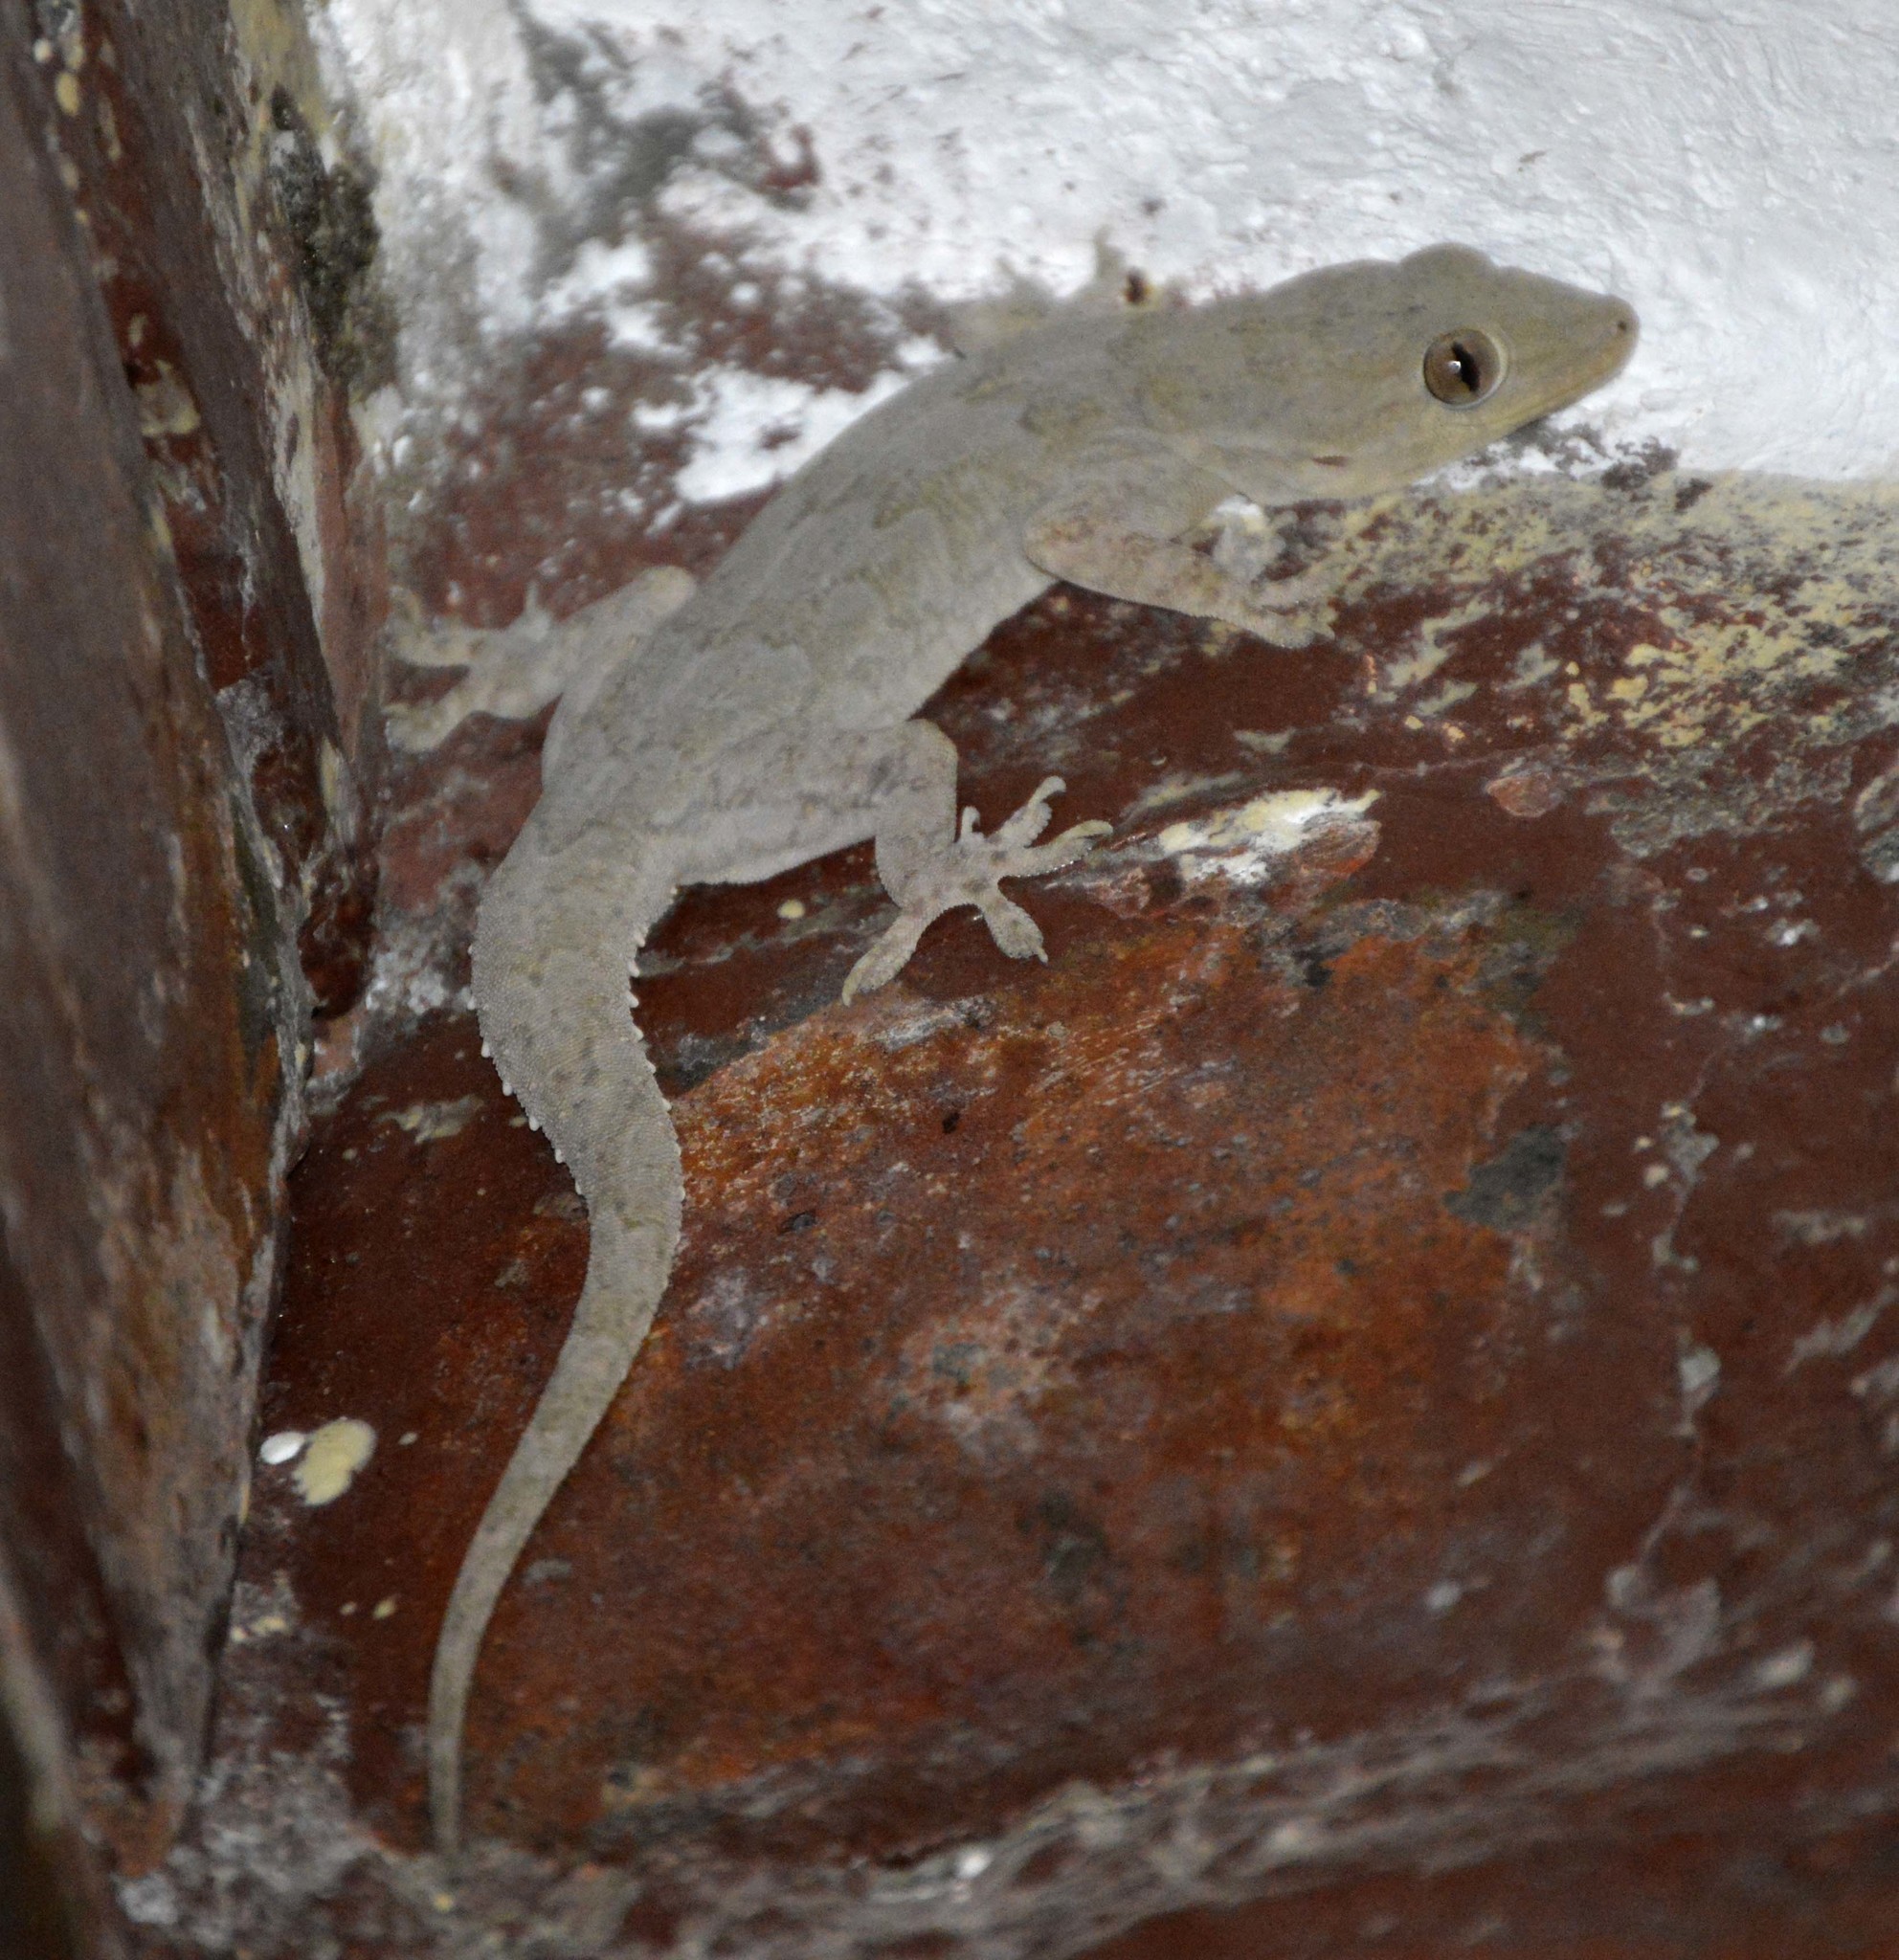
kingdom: Animalia
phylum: Chordata
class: Squamata
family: Gekkonidae
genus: Hemidactylus
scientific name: Hemidactylus flaviviridis
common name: Northern house gecko
